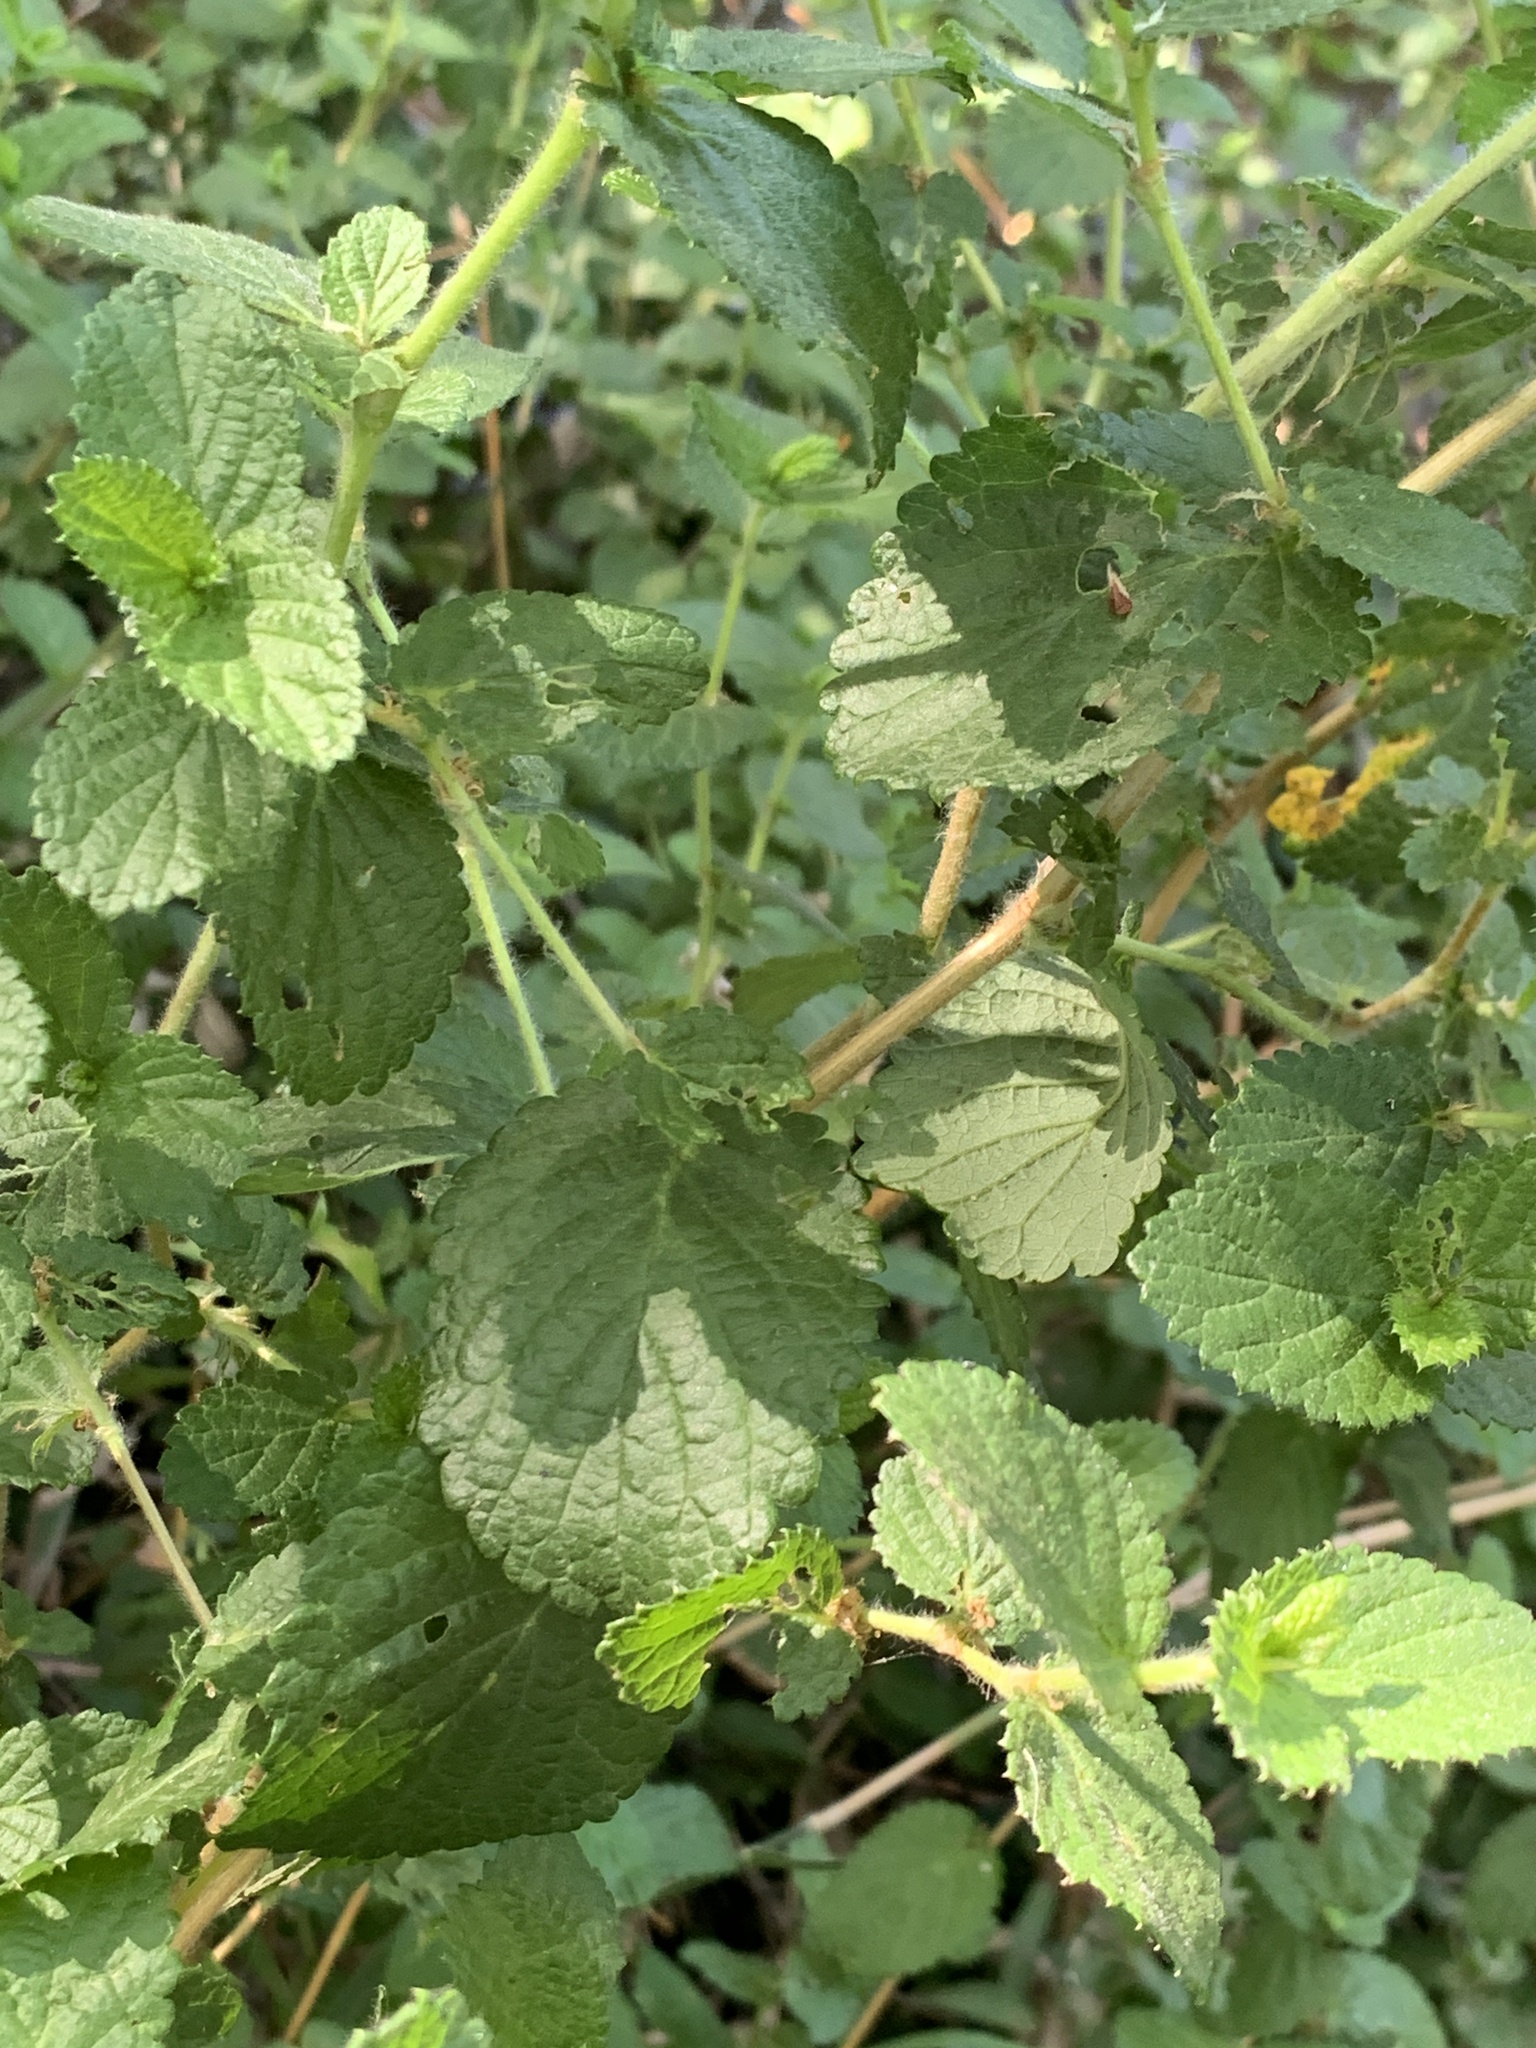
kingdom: Plantae
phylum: Tracheophyta
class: Magnoliopsida
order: Rosales
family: Rosaceae
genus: Cliffortia
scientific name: Cliffortia odorata
